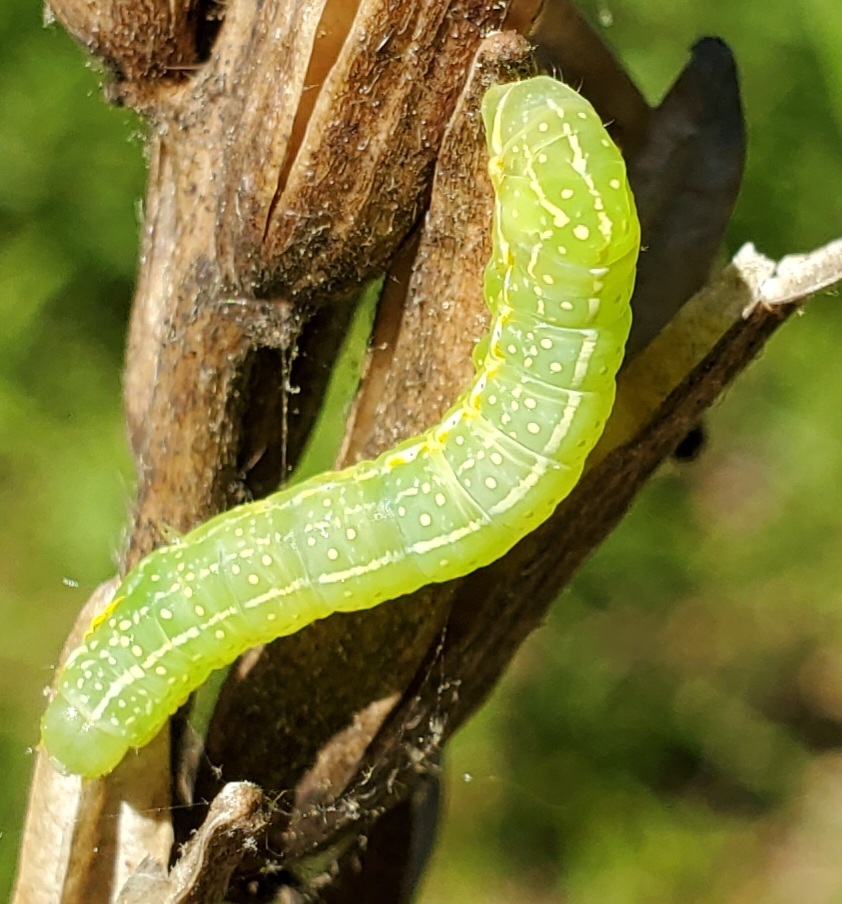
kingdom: Animalia
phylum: Arthropoda
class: Insecta
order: Lepidoptera
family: Noctuidae
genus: Amphipyra
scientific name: Amphipyra pyramidoides
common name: American copper underwing
